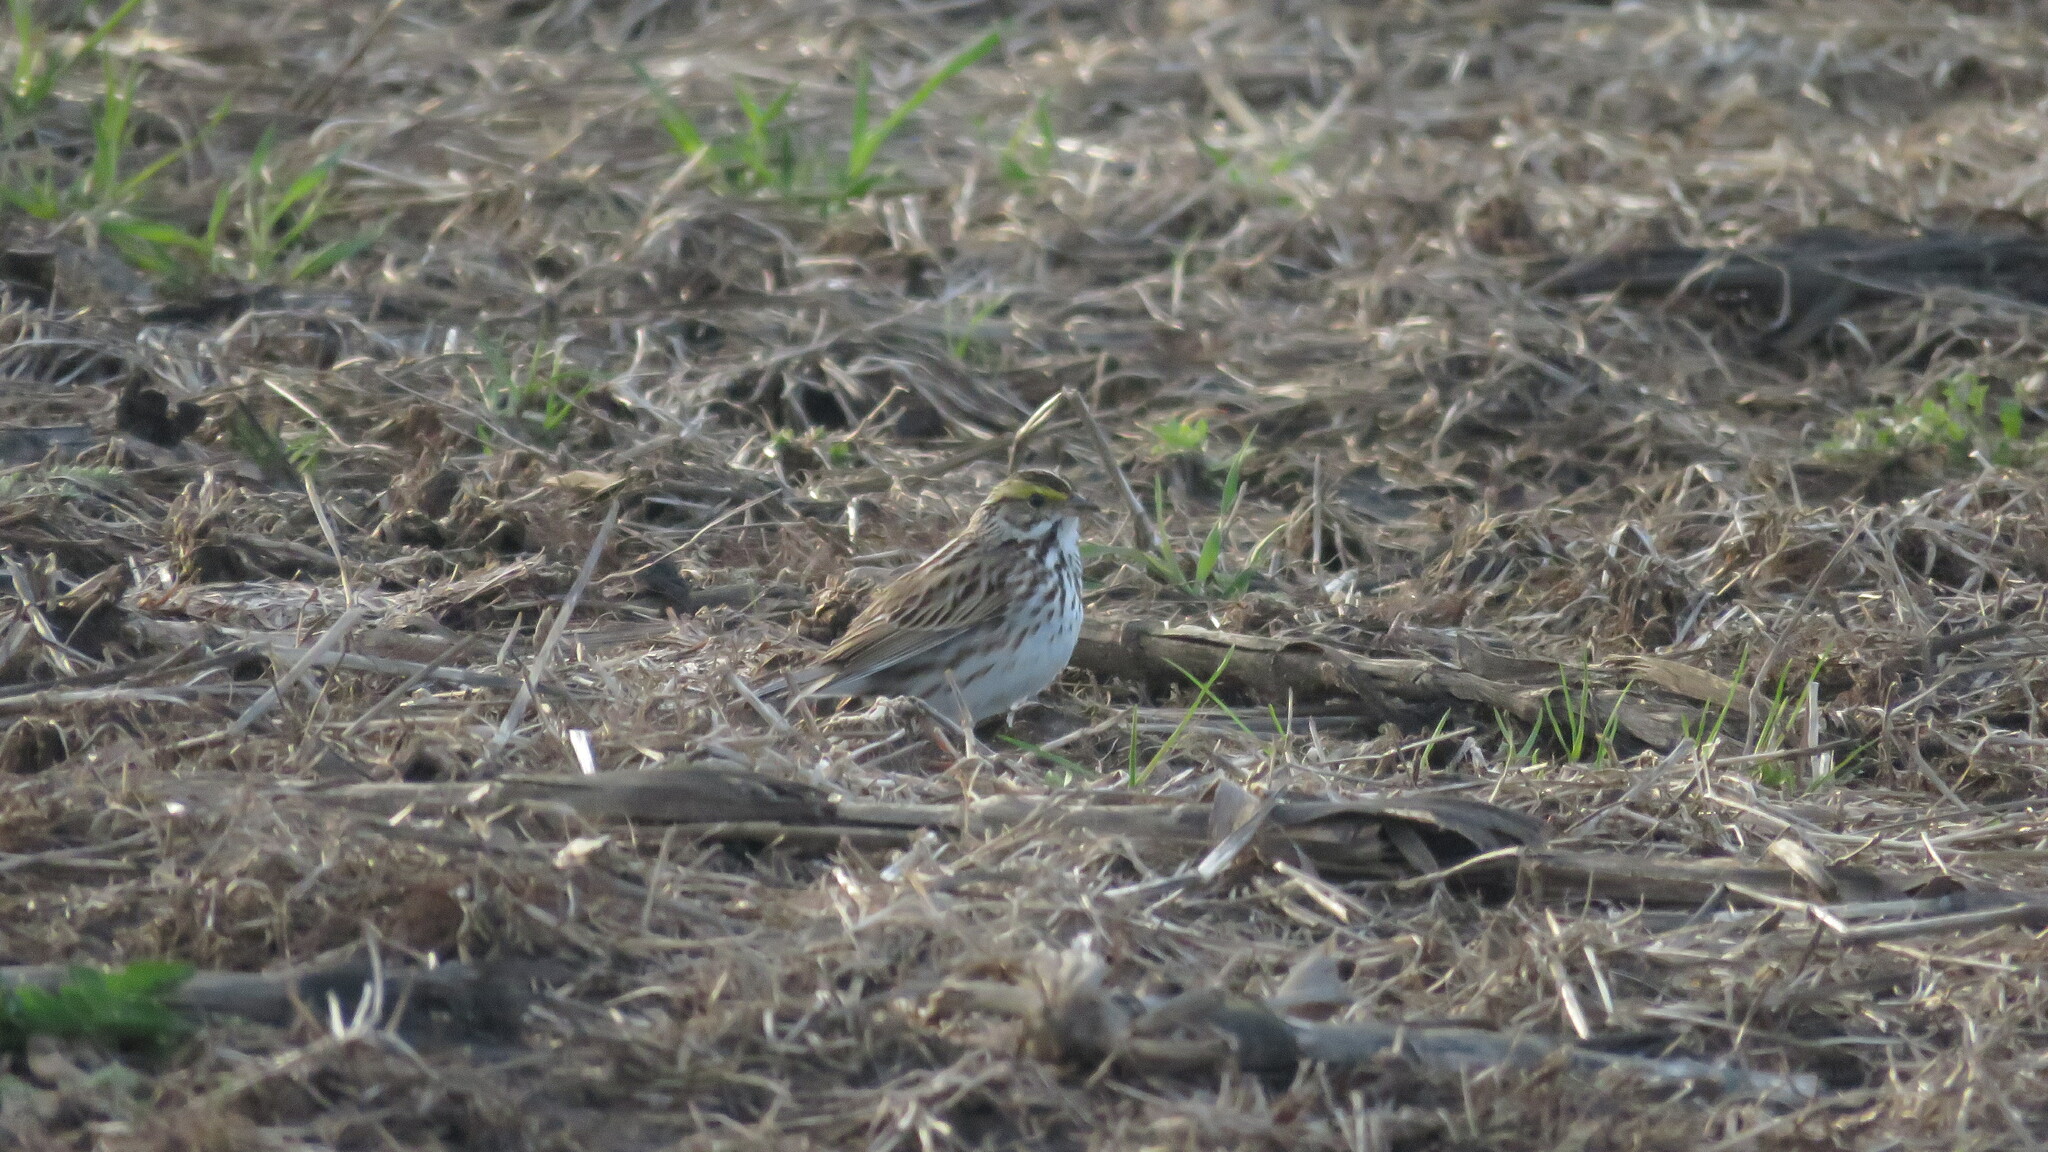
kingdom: Animalia
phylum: Chordata
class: Aves
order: Passeriformes
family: Passerellidae
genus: Passerculus
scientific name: Passerculus sandwichensis
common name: Savannah sparrow
